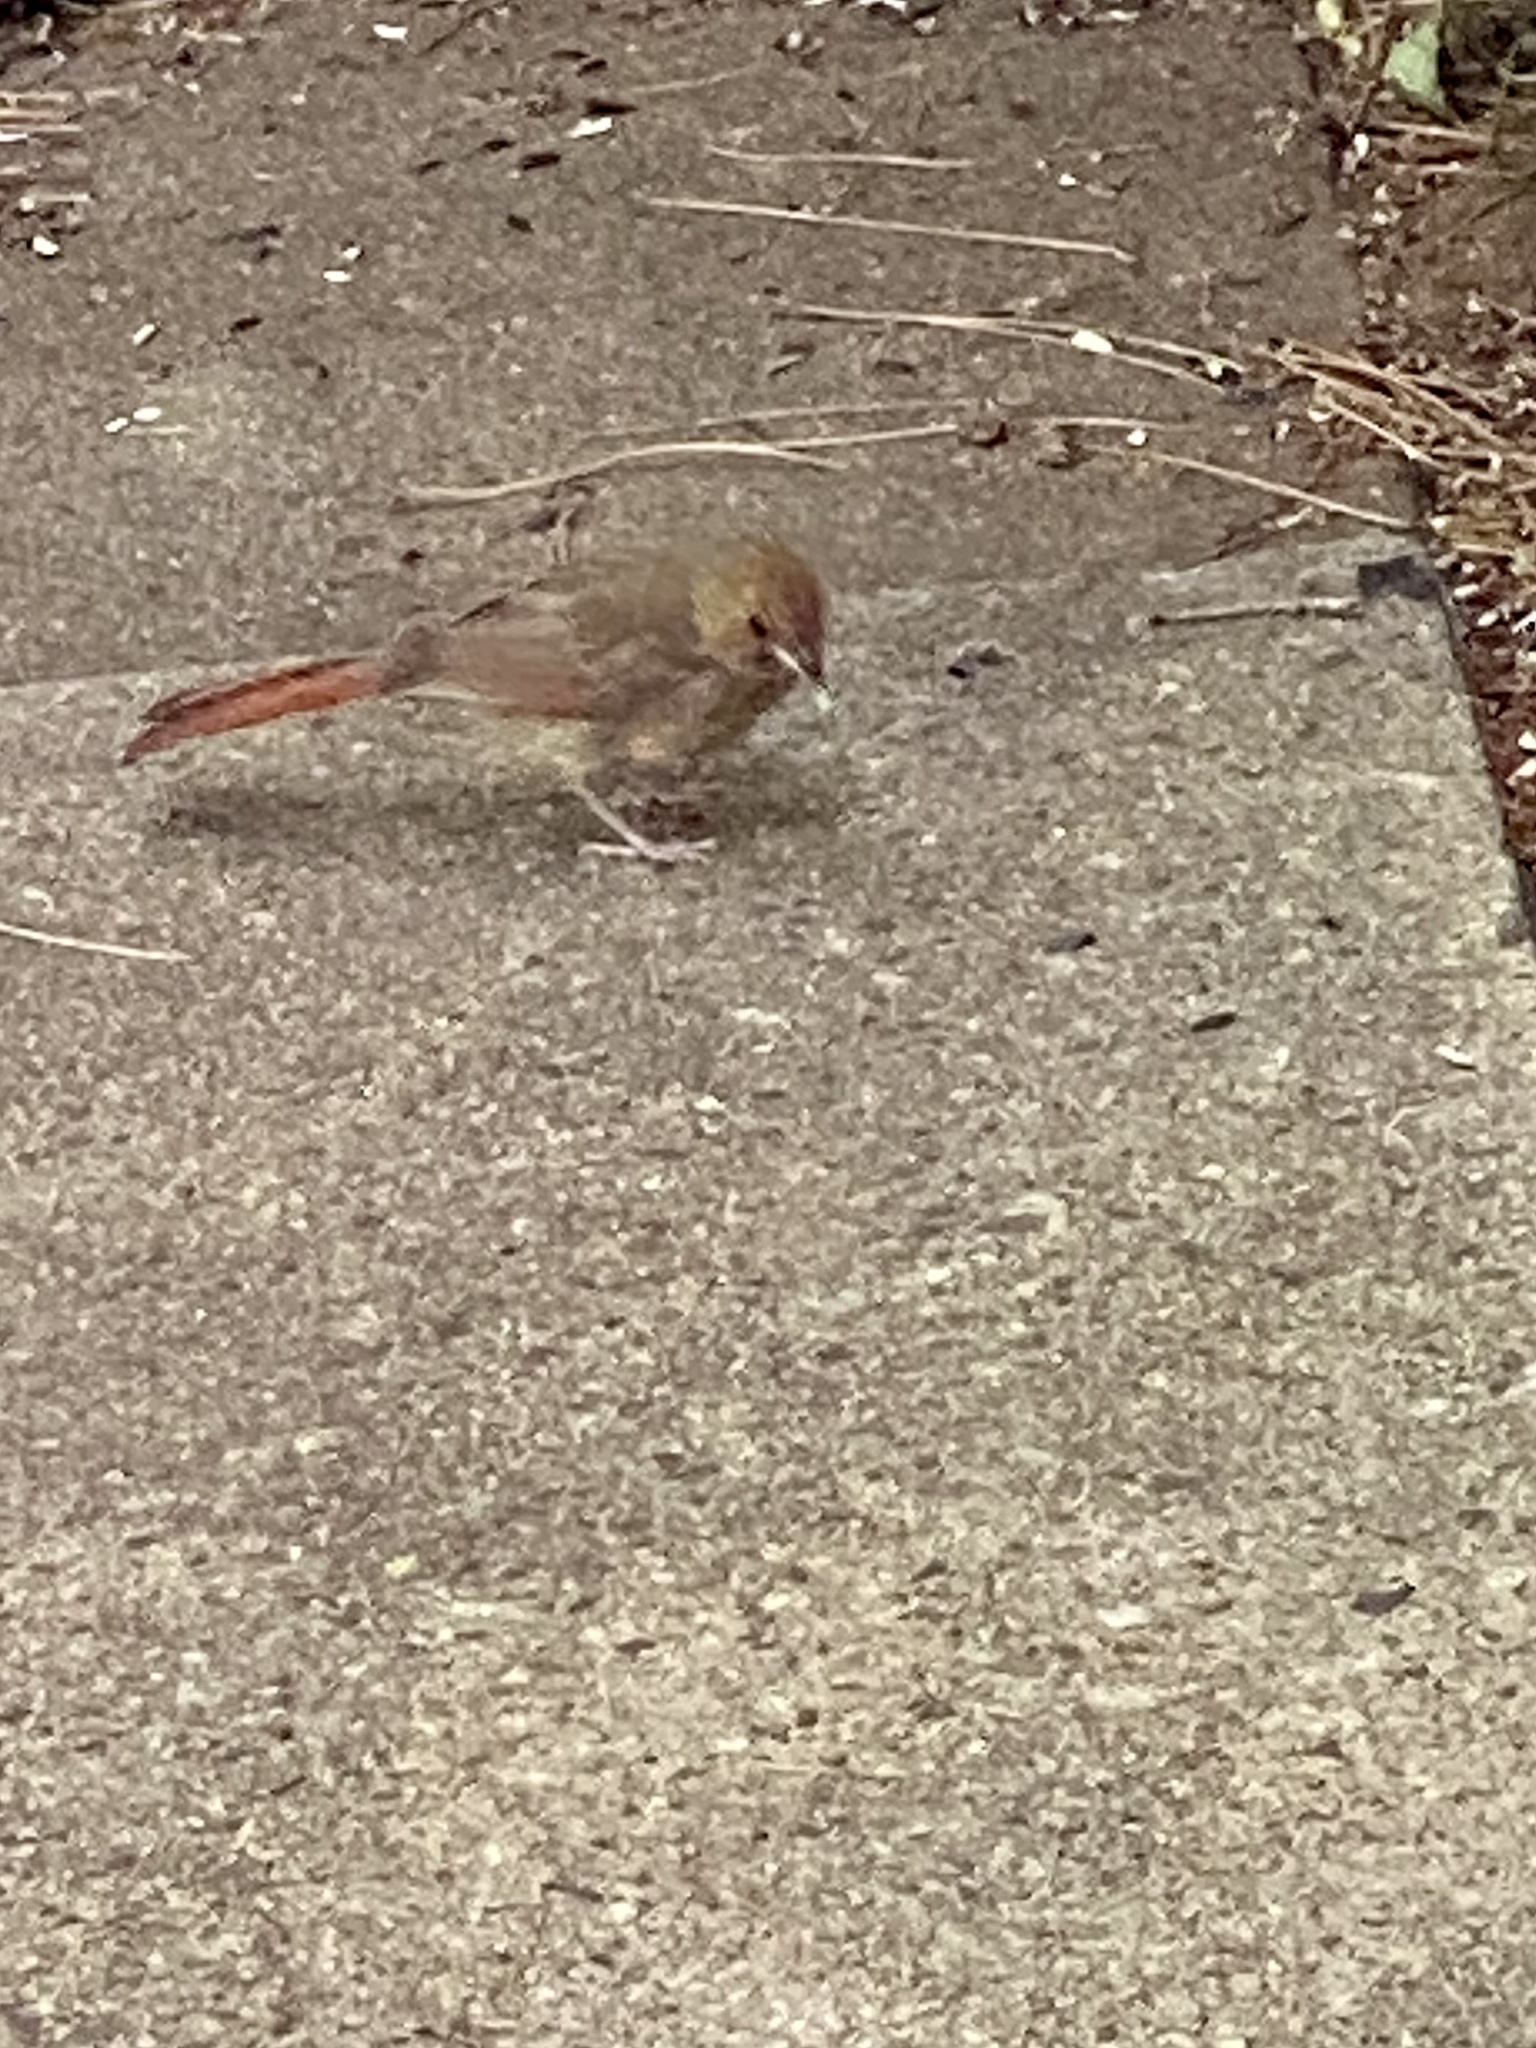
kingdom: Animalia
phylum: Chordata
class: Aves
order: Passeriformes
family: Cardinalidae
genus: Cardinalis
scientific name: Cardinalis cardinalis
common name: Northern cardinal
